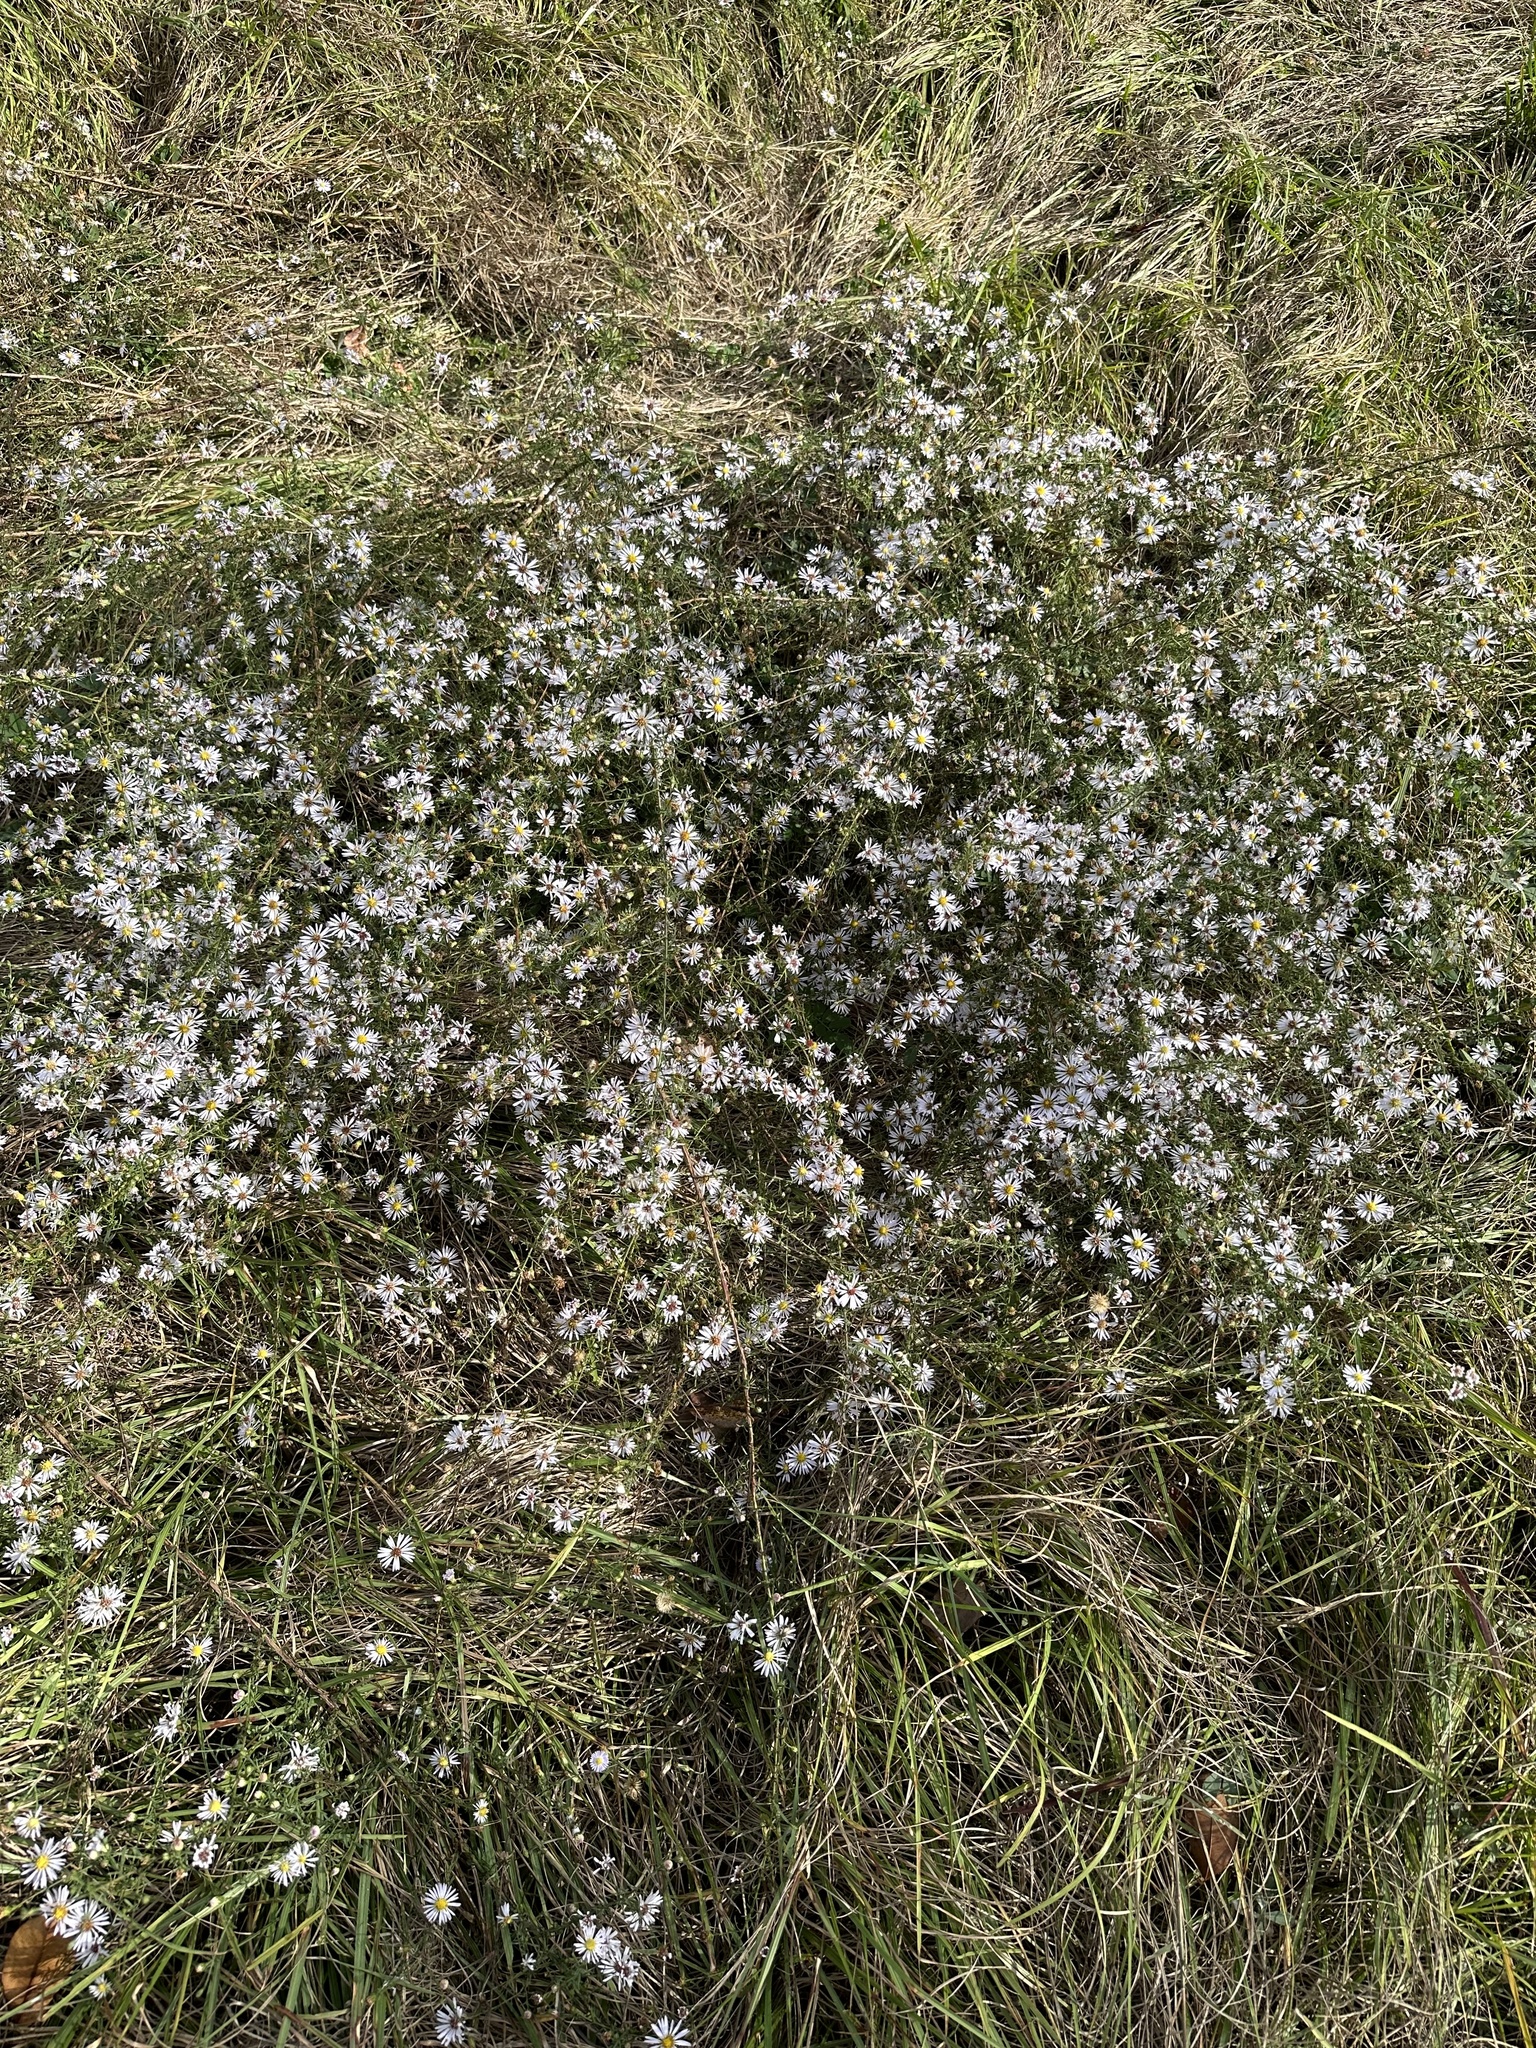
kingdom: Plantae
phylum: Tracheophyta
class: Magnoliopsida
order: Asterales
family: Asteraceae
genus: Symphyotrichum
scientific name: Symphyotrichum dumosum
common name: Bushy aster
